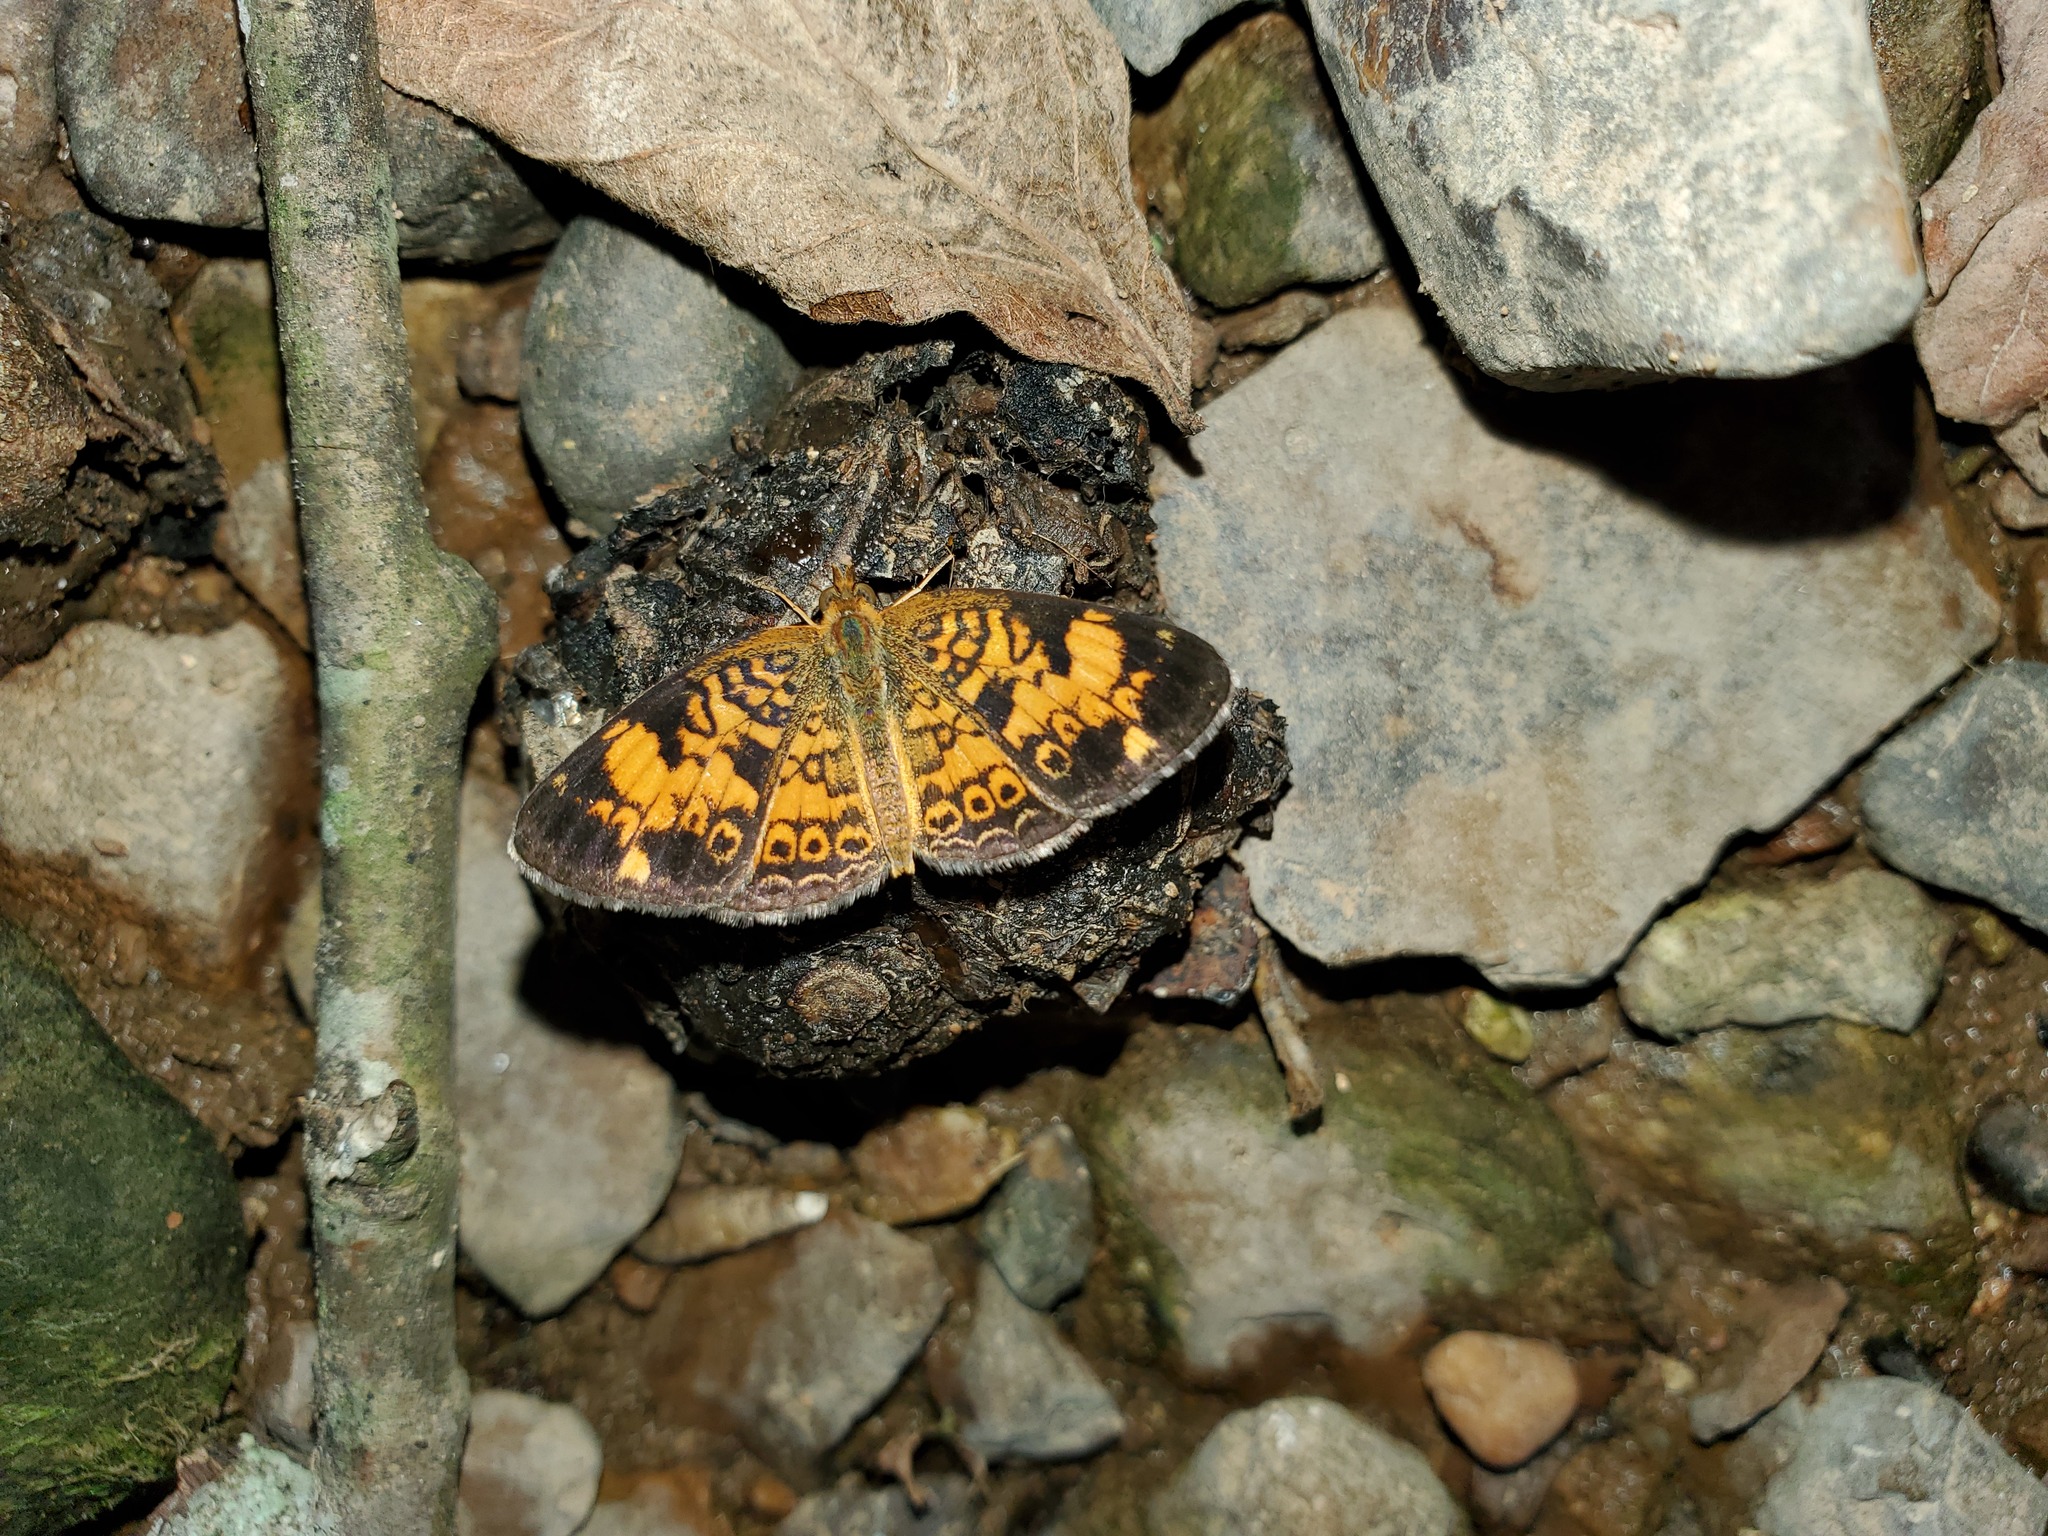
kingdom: Animalia
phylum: Arthropoda
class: Insecta
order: Lepidoptera
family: Nymphalidae
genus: Phyciodes
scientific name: Phyciodes tharos
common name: Pearl crescent
